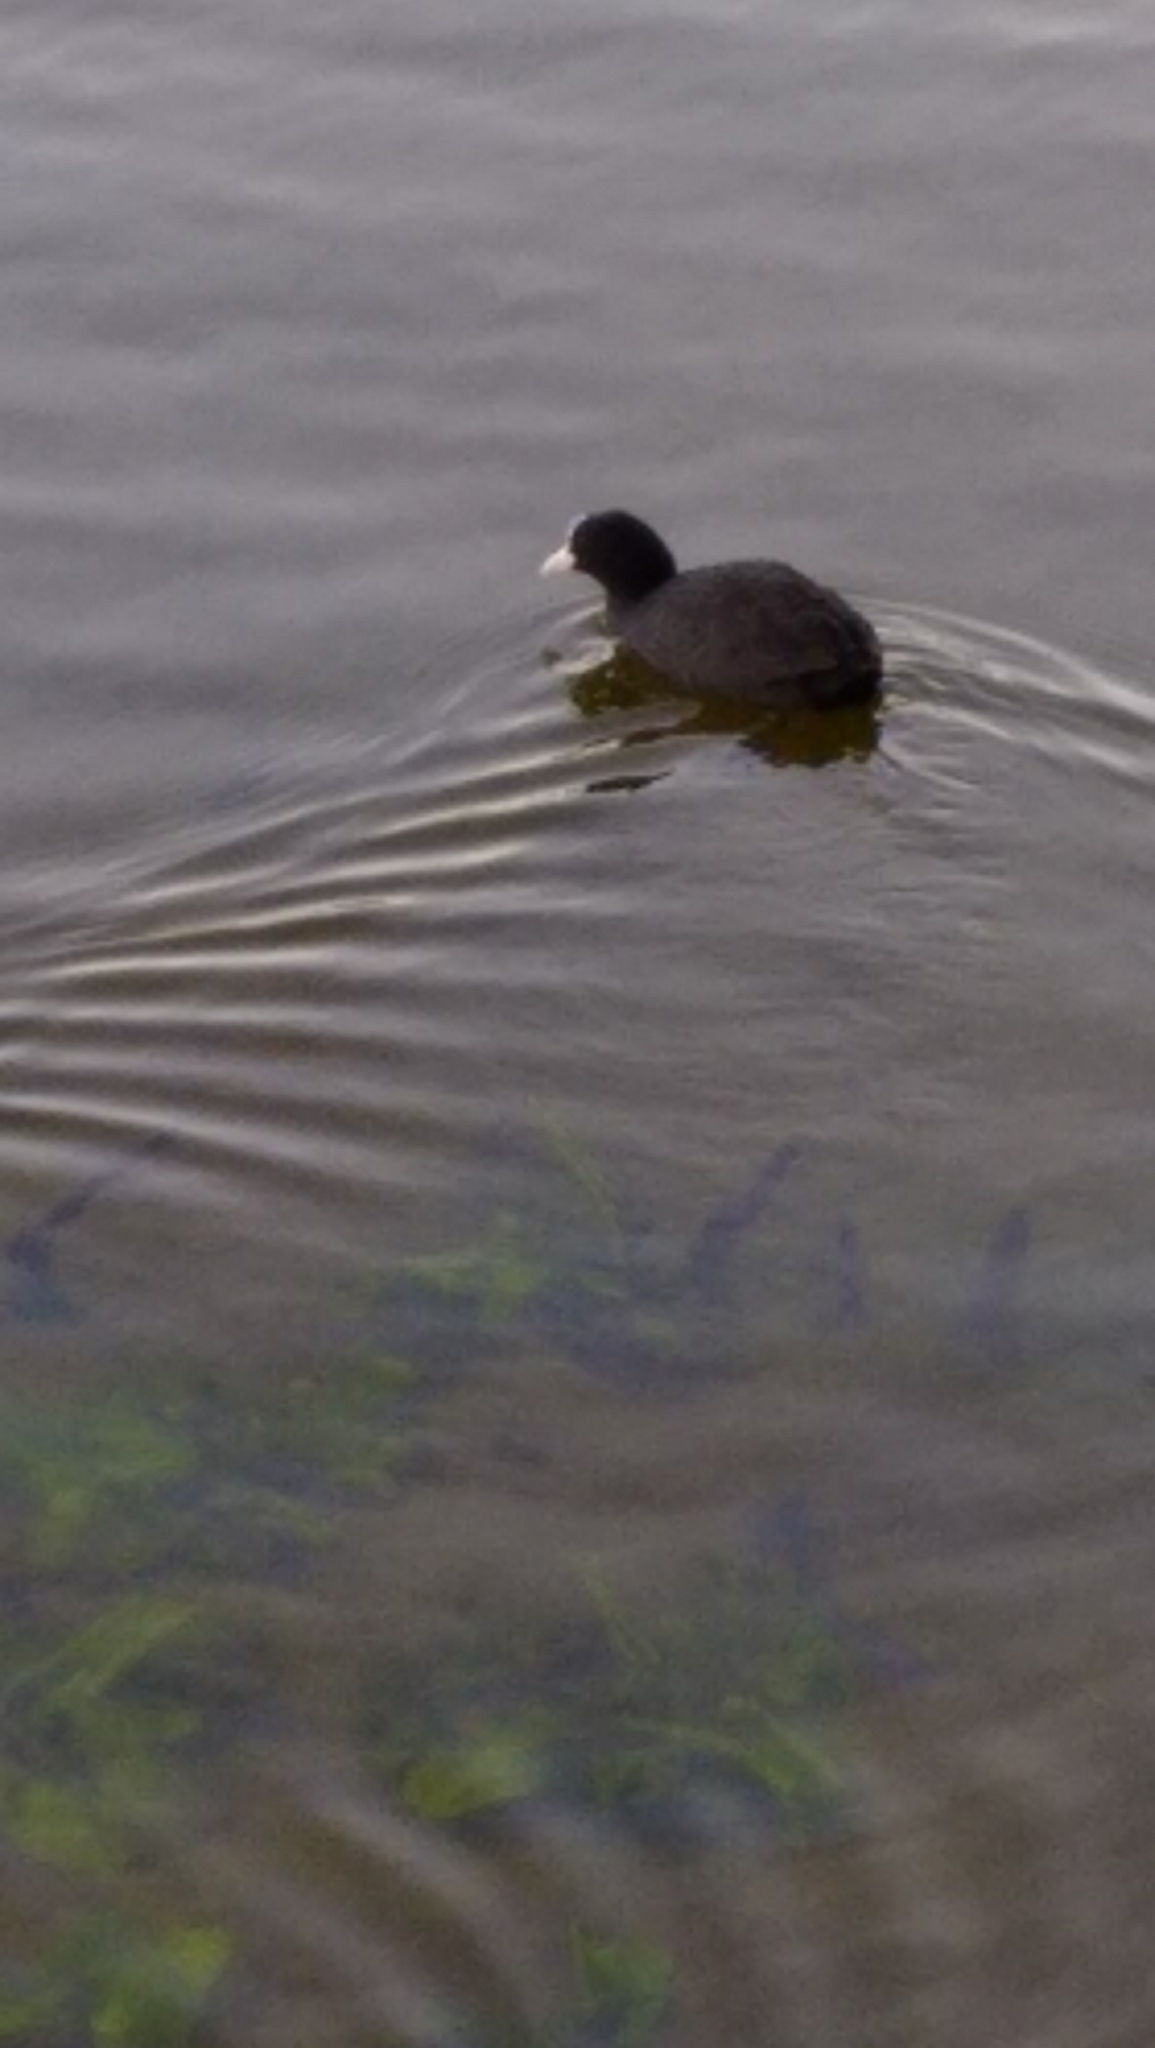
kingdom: Animalia
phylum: Chordata
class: Aves
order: Gruiformes
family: Rallidae
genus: Fulica
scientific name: Fulica atra
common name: Eurasian coot
